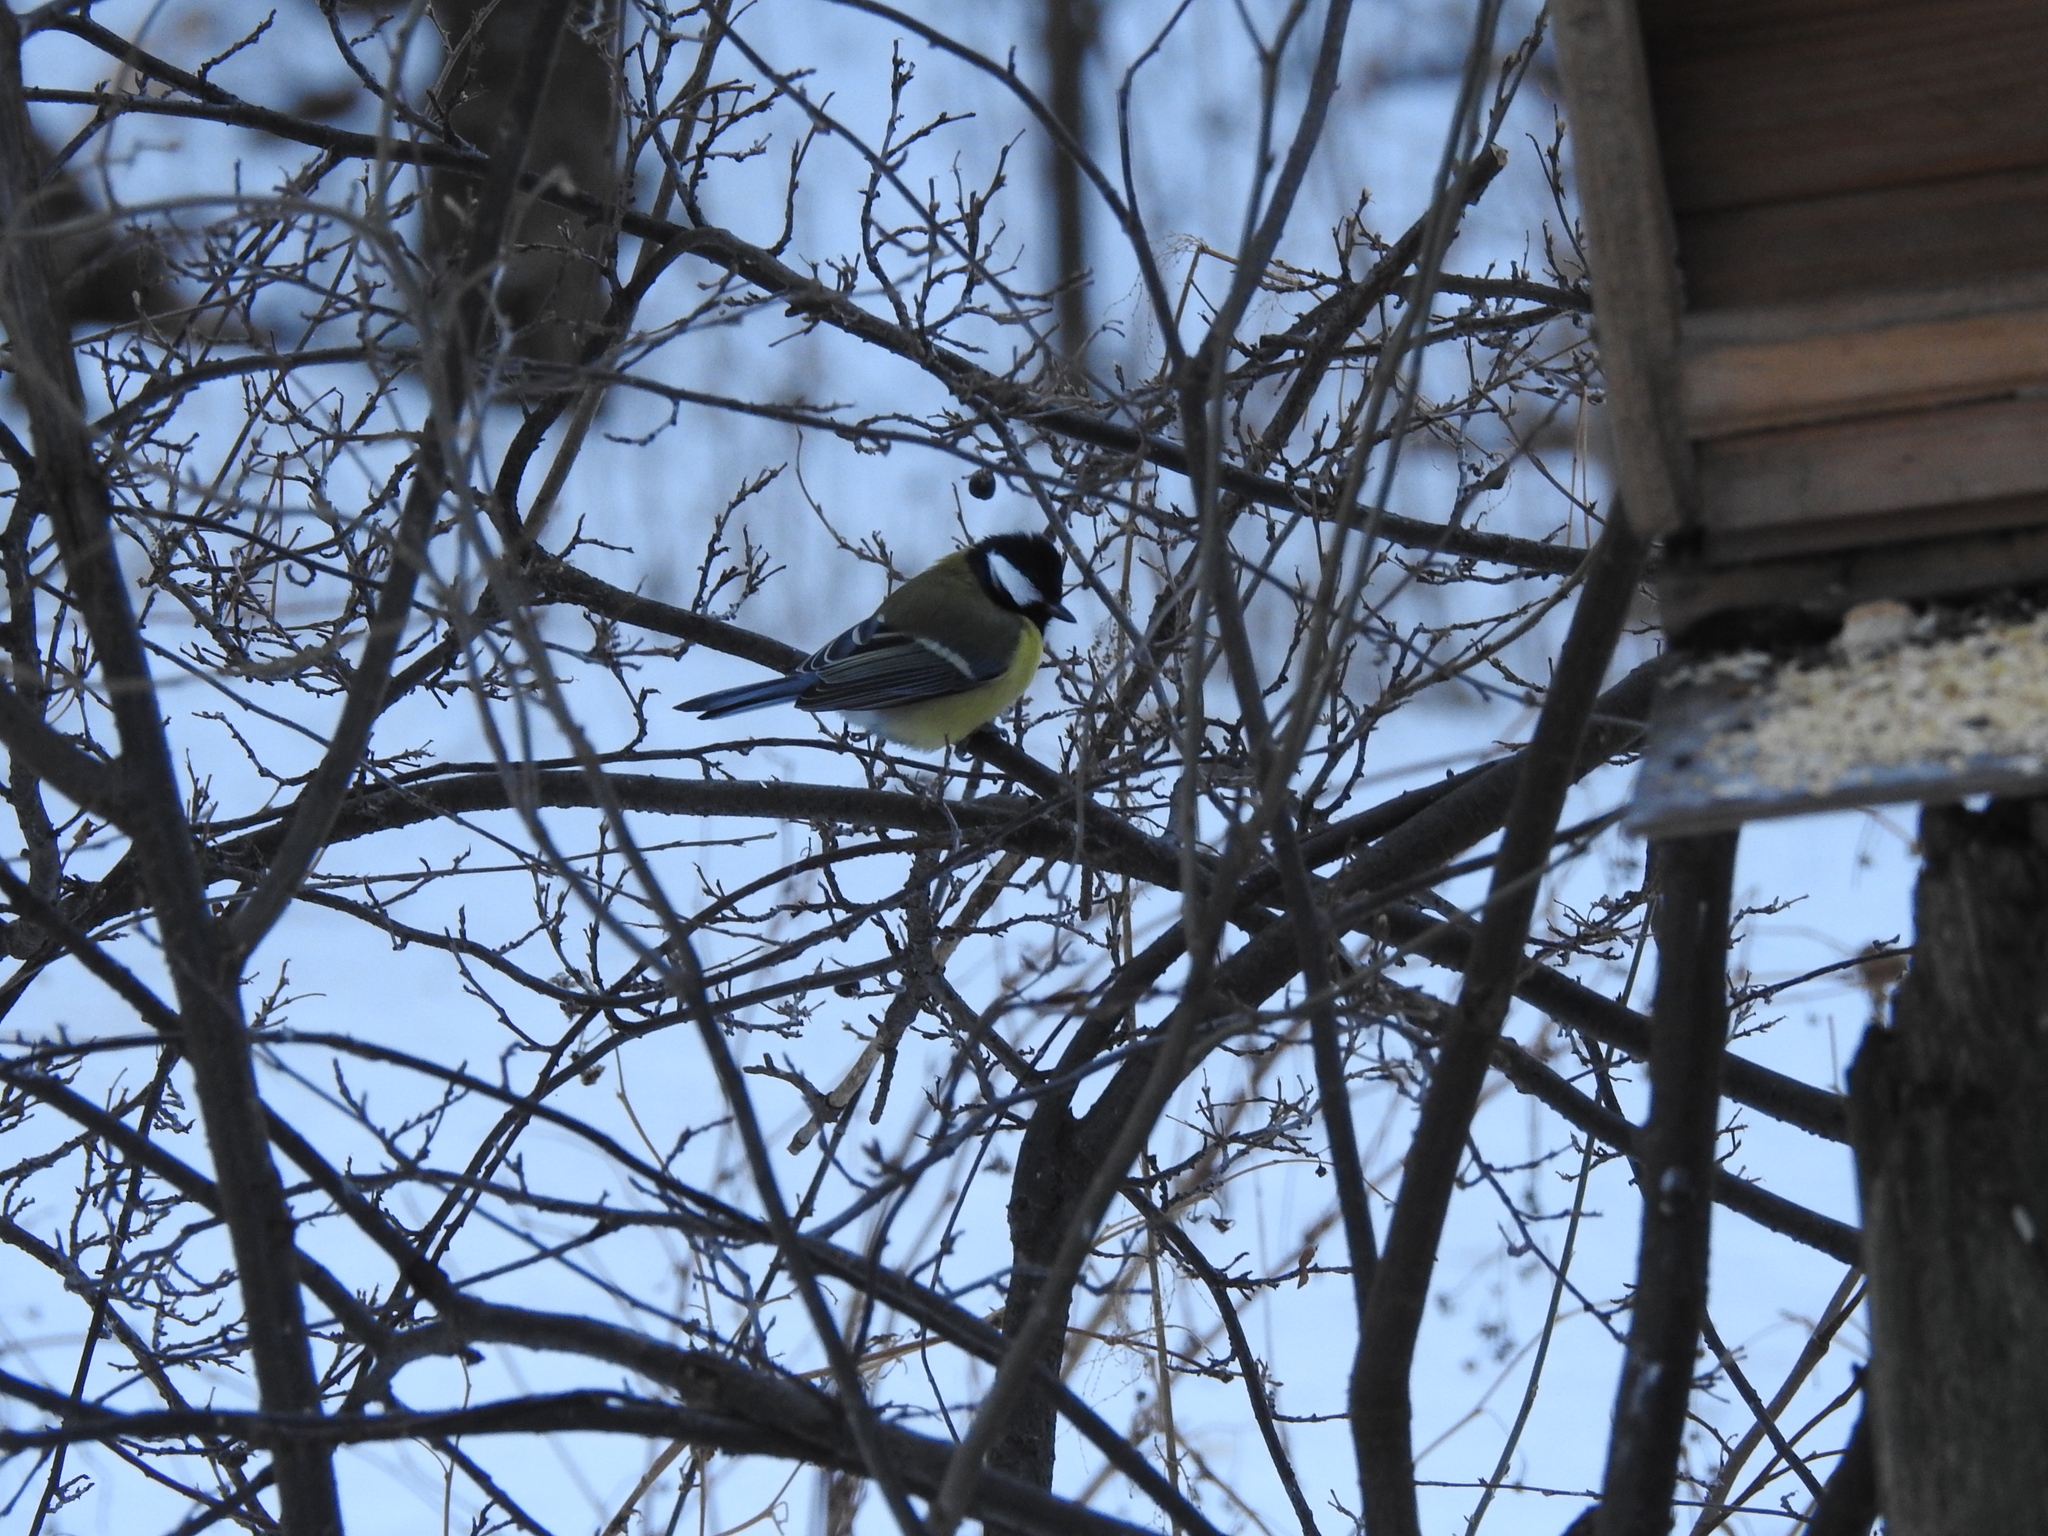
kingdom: Animalia
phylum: Chordata
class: Aves
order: Passeriformes
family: Paridae
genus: Parus
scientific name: Parus major
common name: Great tit
